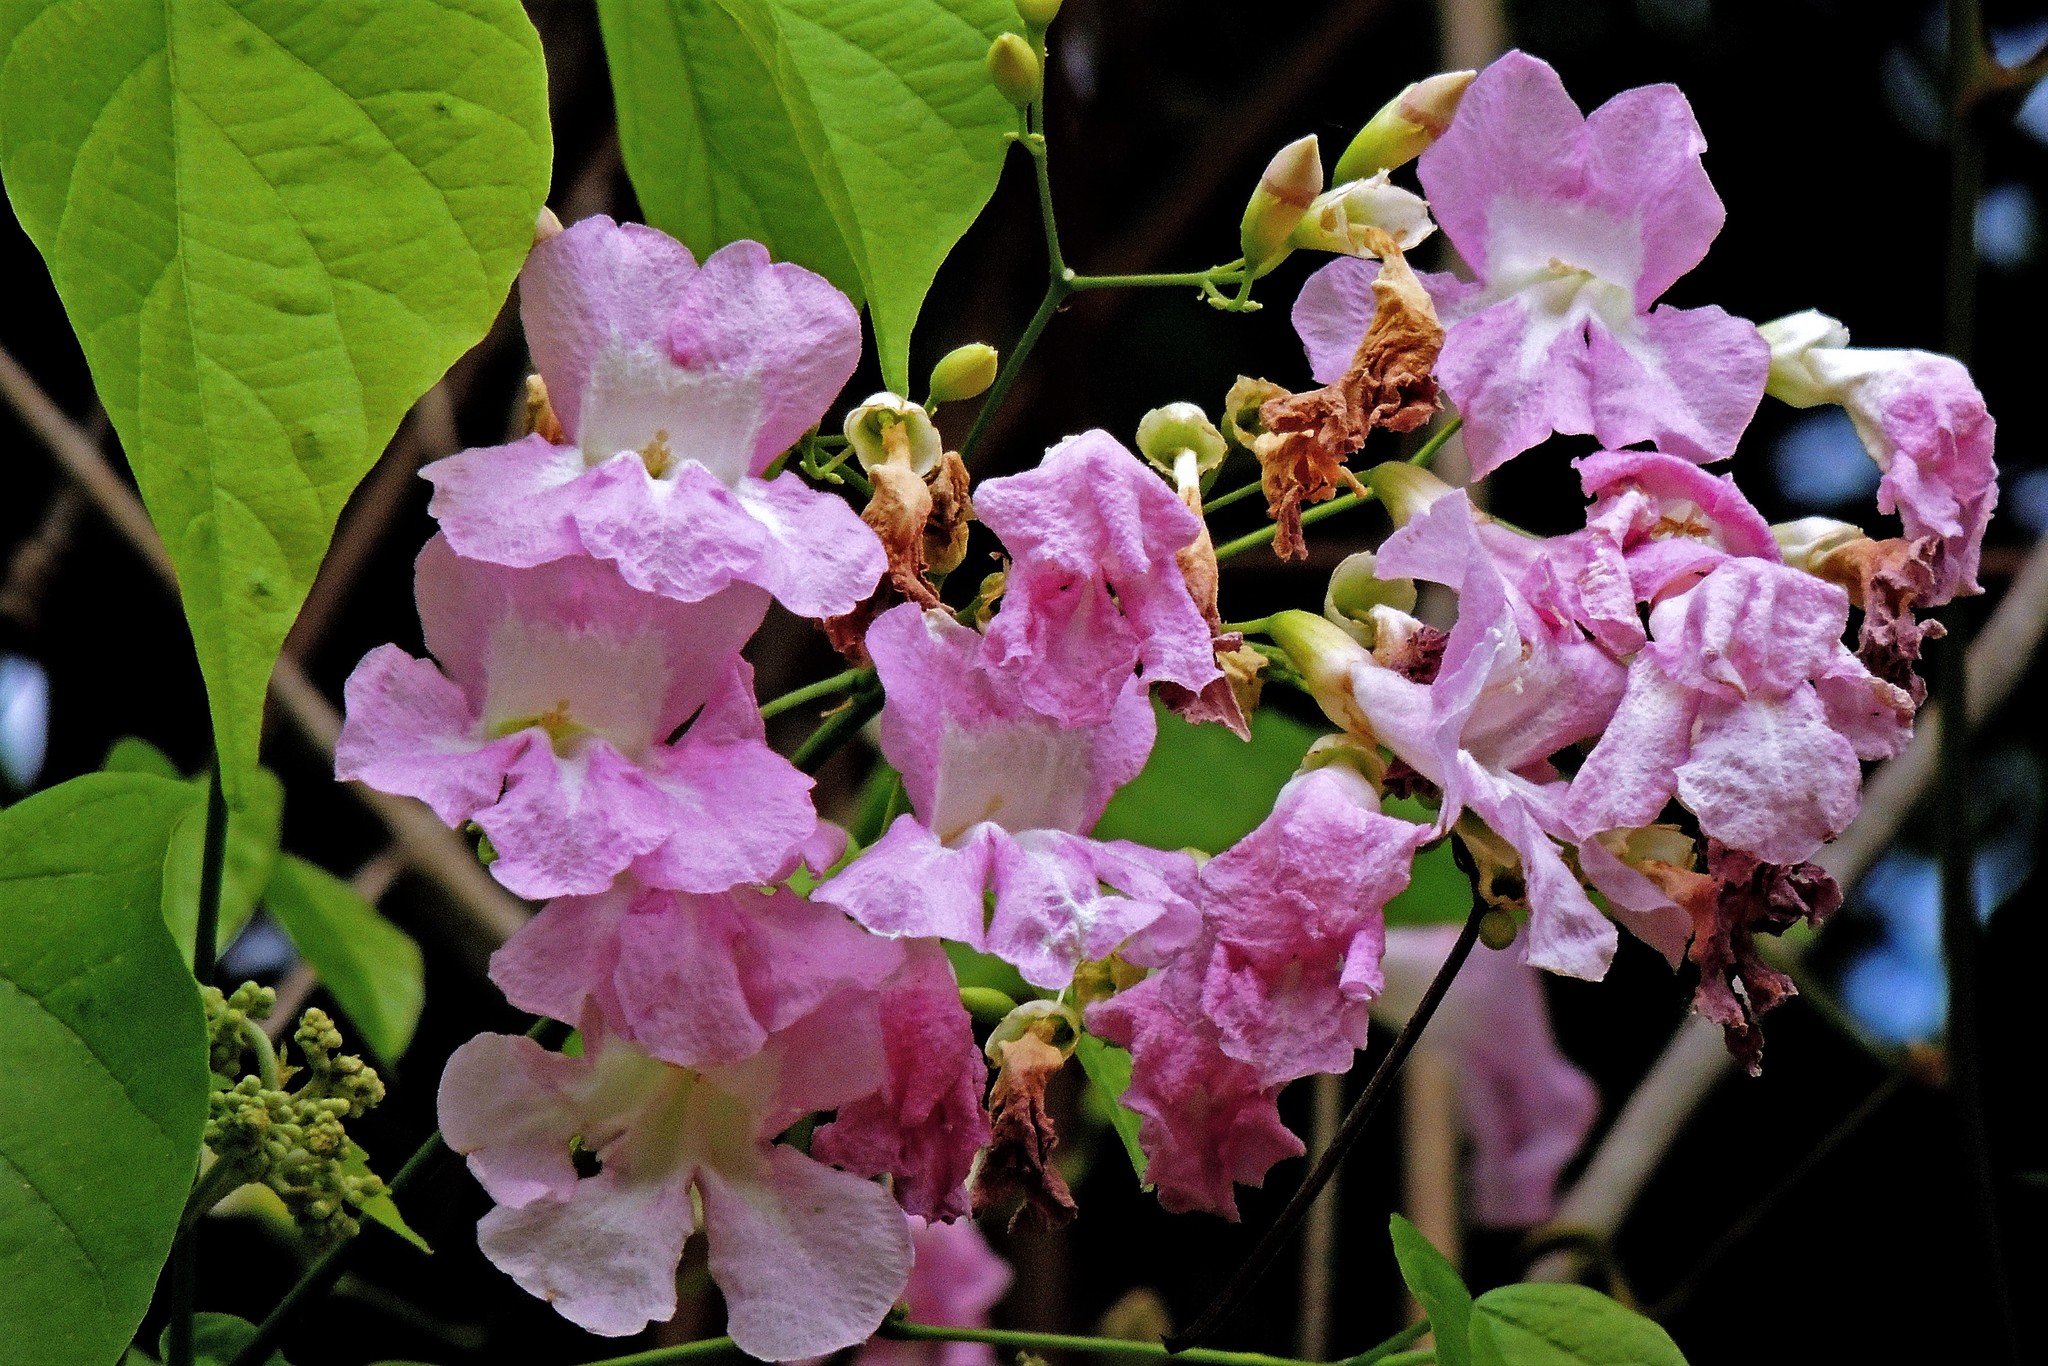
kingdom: Plantae
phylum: Tracheophyta
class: Magnoliopsida
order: Lamiales
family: Bignoniaceae
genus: Tanaecium
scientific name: Tanaecium selloi
